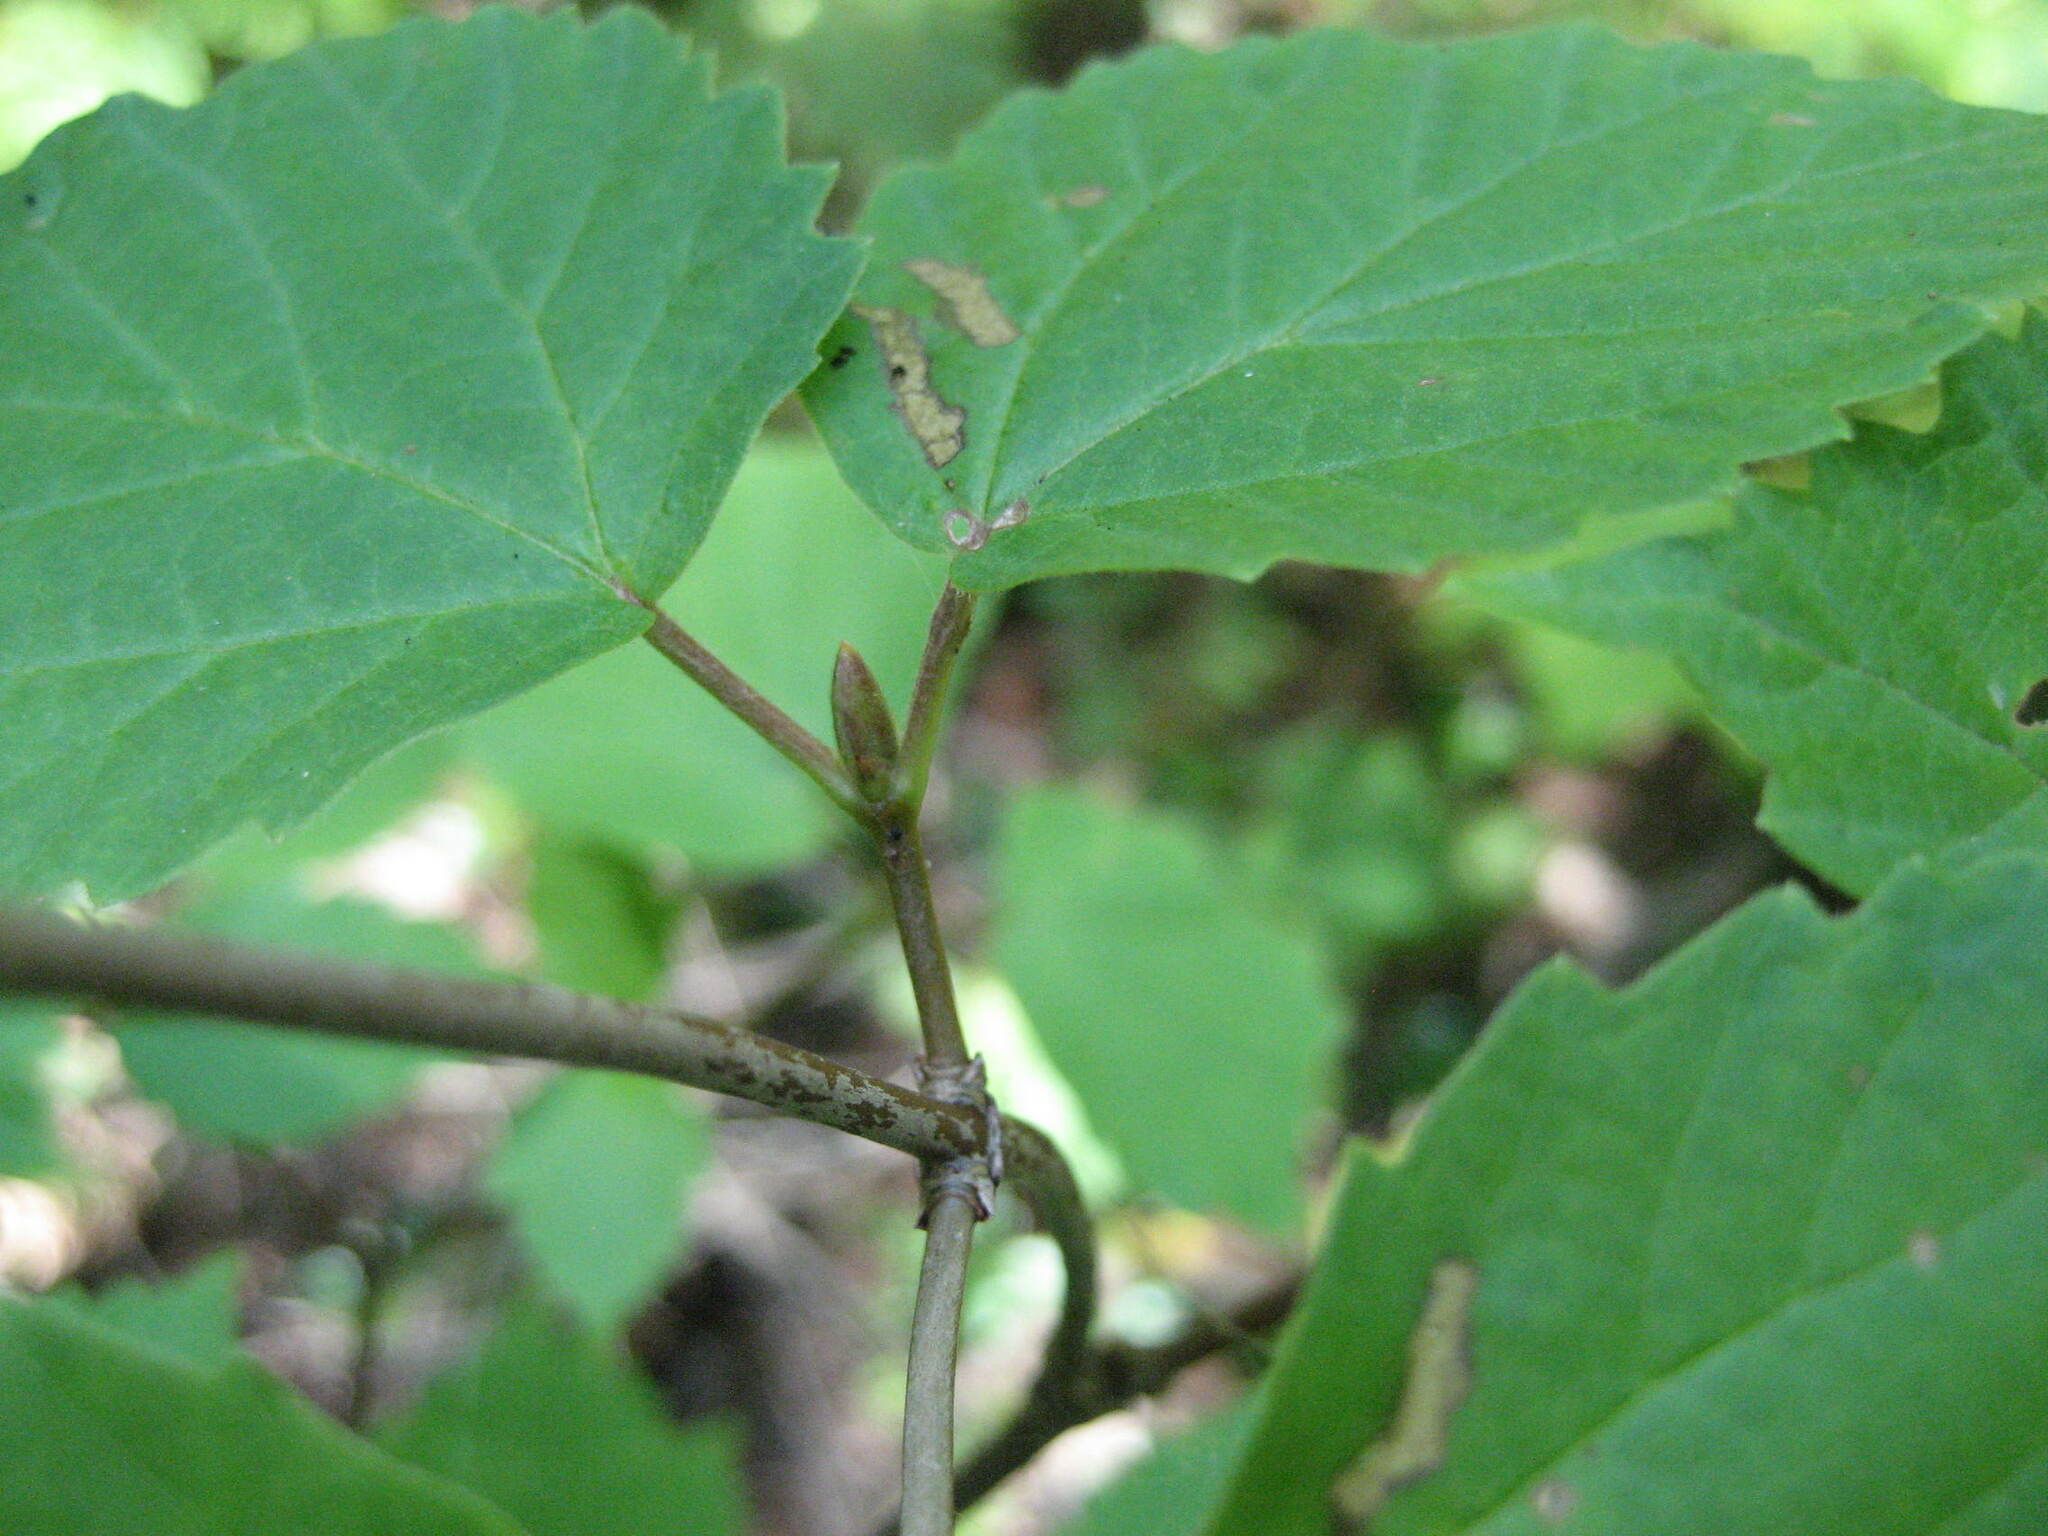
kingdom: Plantae
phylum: Tracheophyta
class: Magnoliopsida
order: Dipsacales
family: Viburnaceae
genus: Viburnum
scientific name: Viburnum acerifolium
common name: Dockmackie
